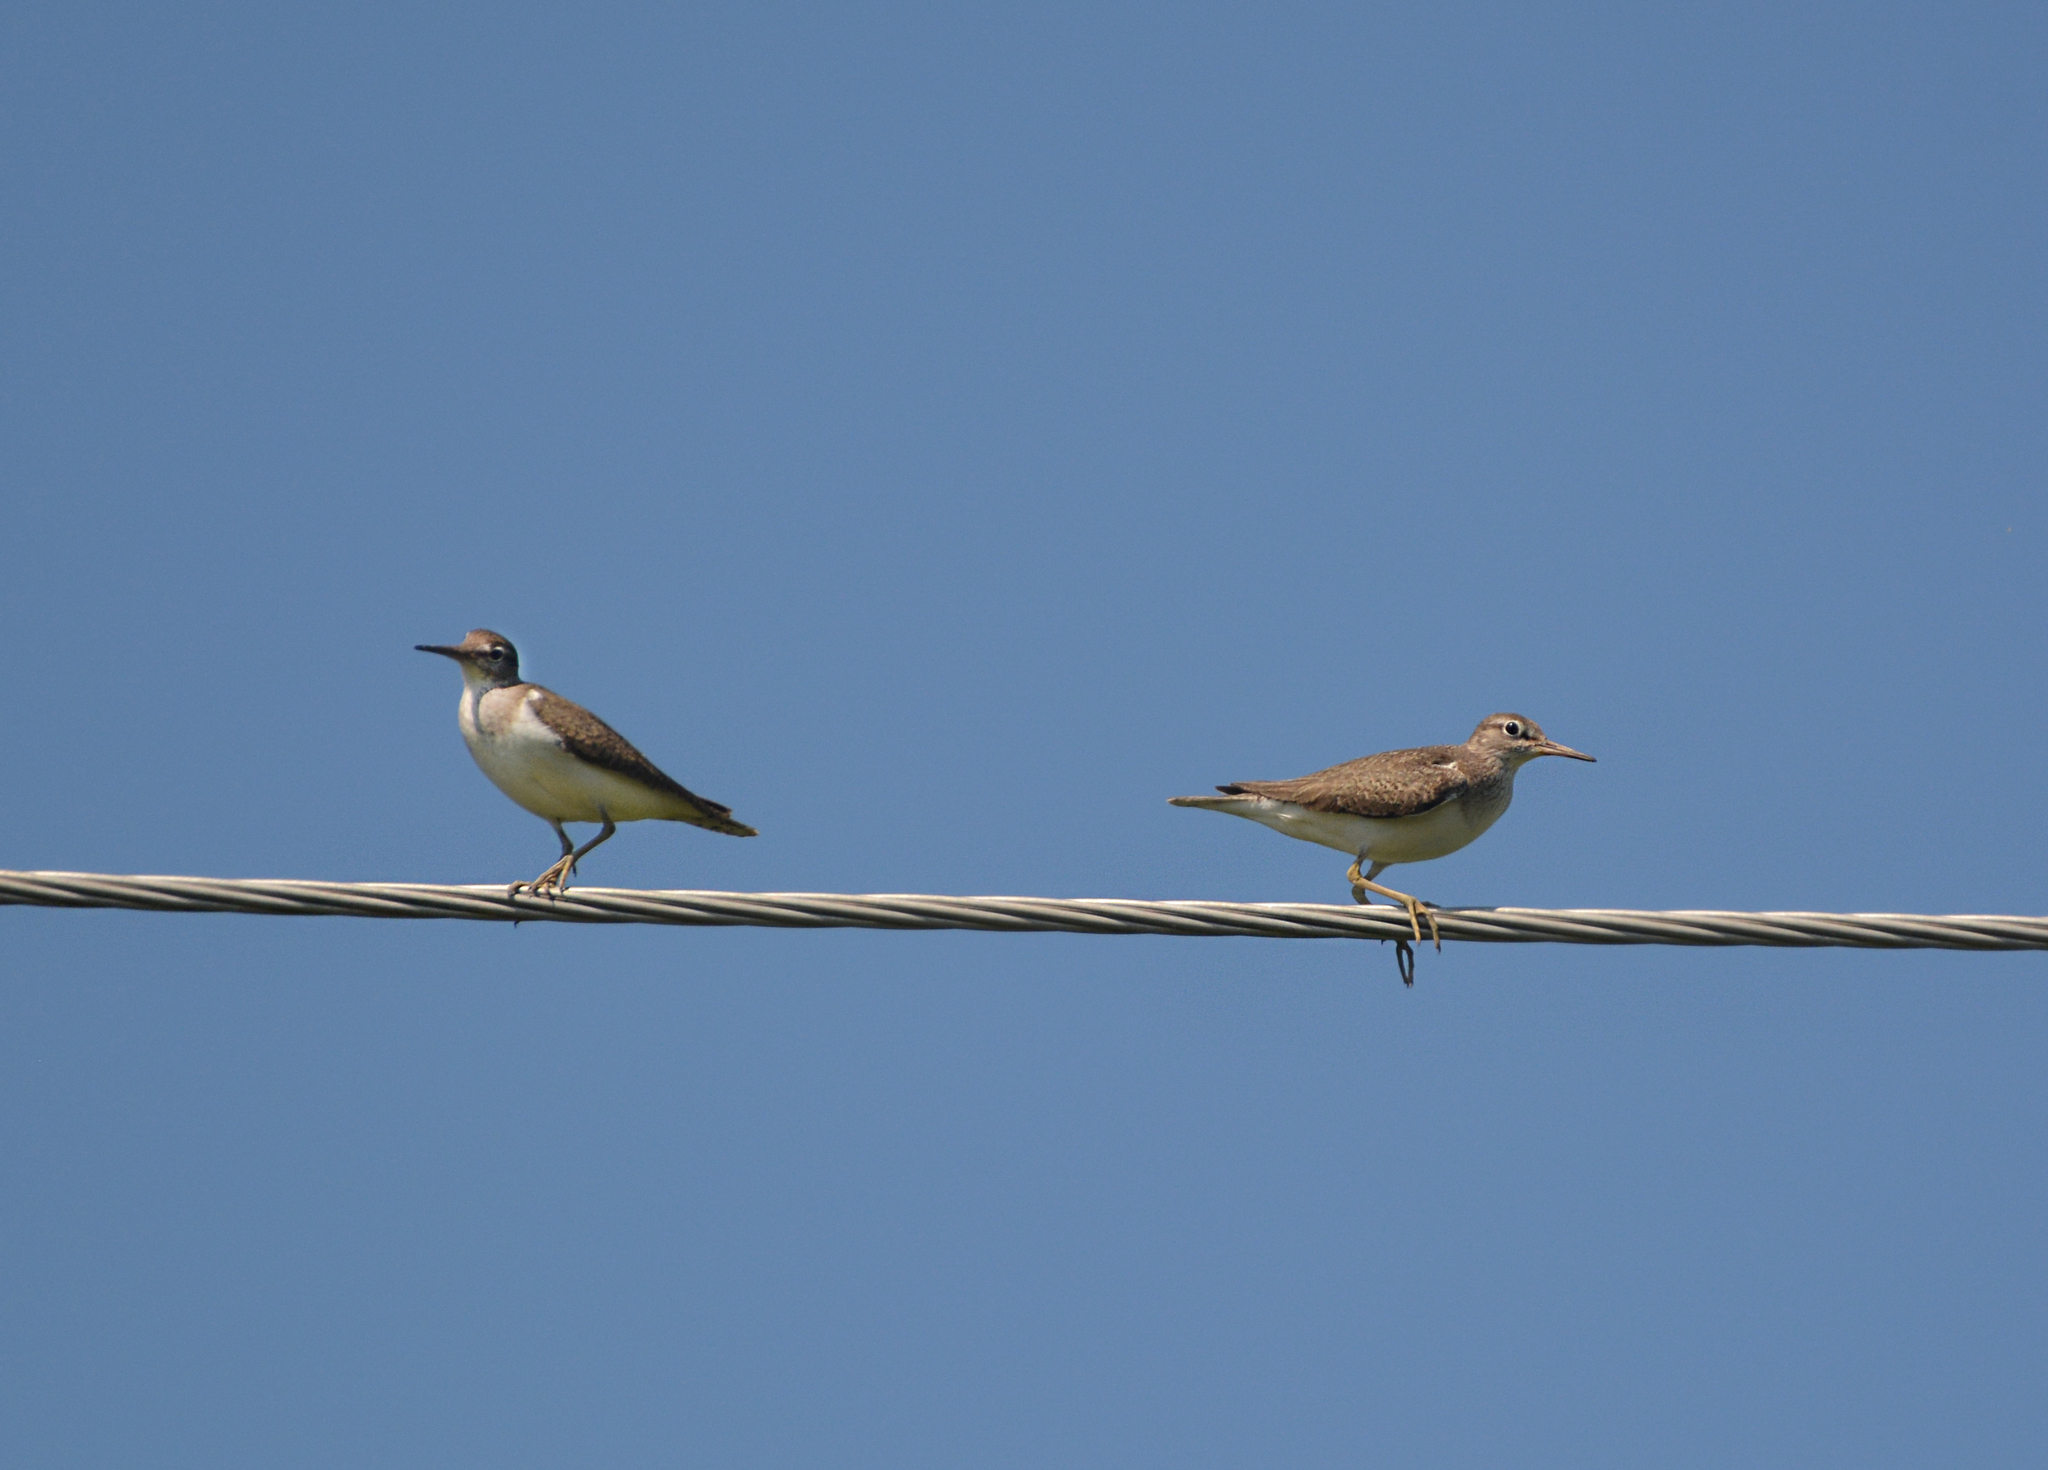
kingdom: Animalia
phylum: Chordata
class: Aves
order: Charadriiformes
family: Scolopacidae
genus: Actitis
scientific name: Actitis hypoleucos
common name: Common sandpiper
